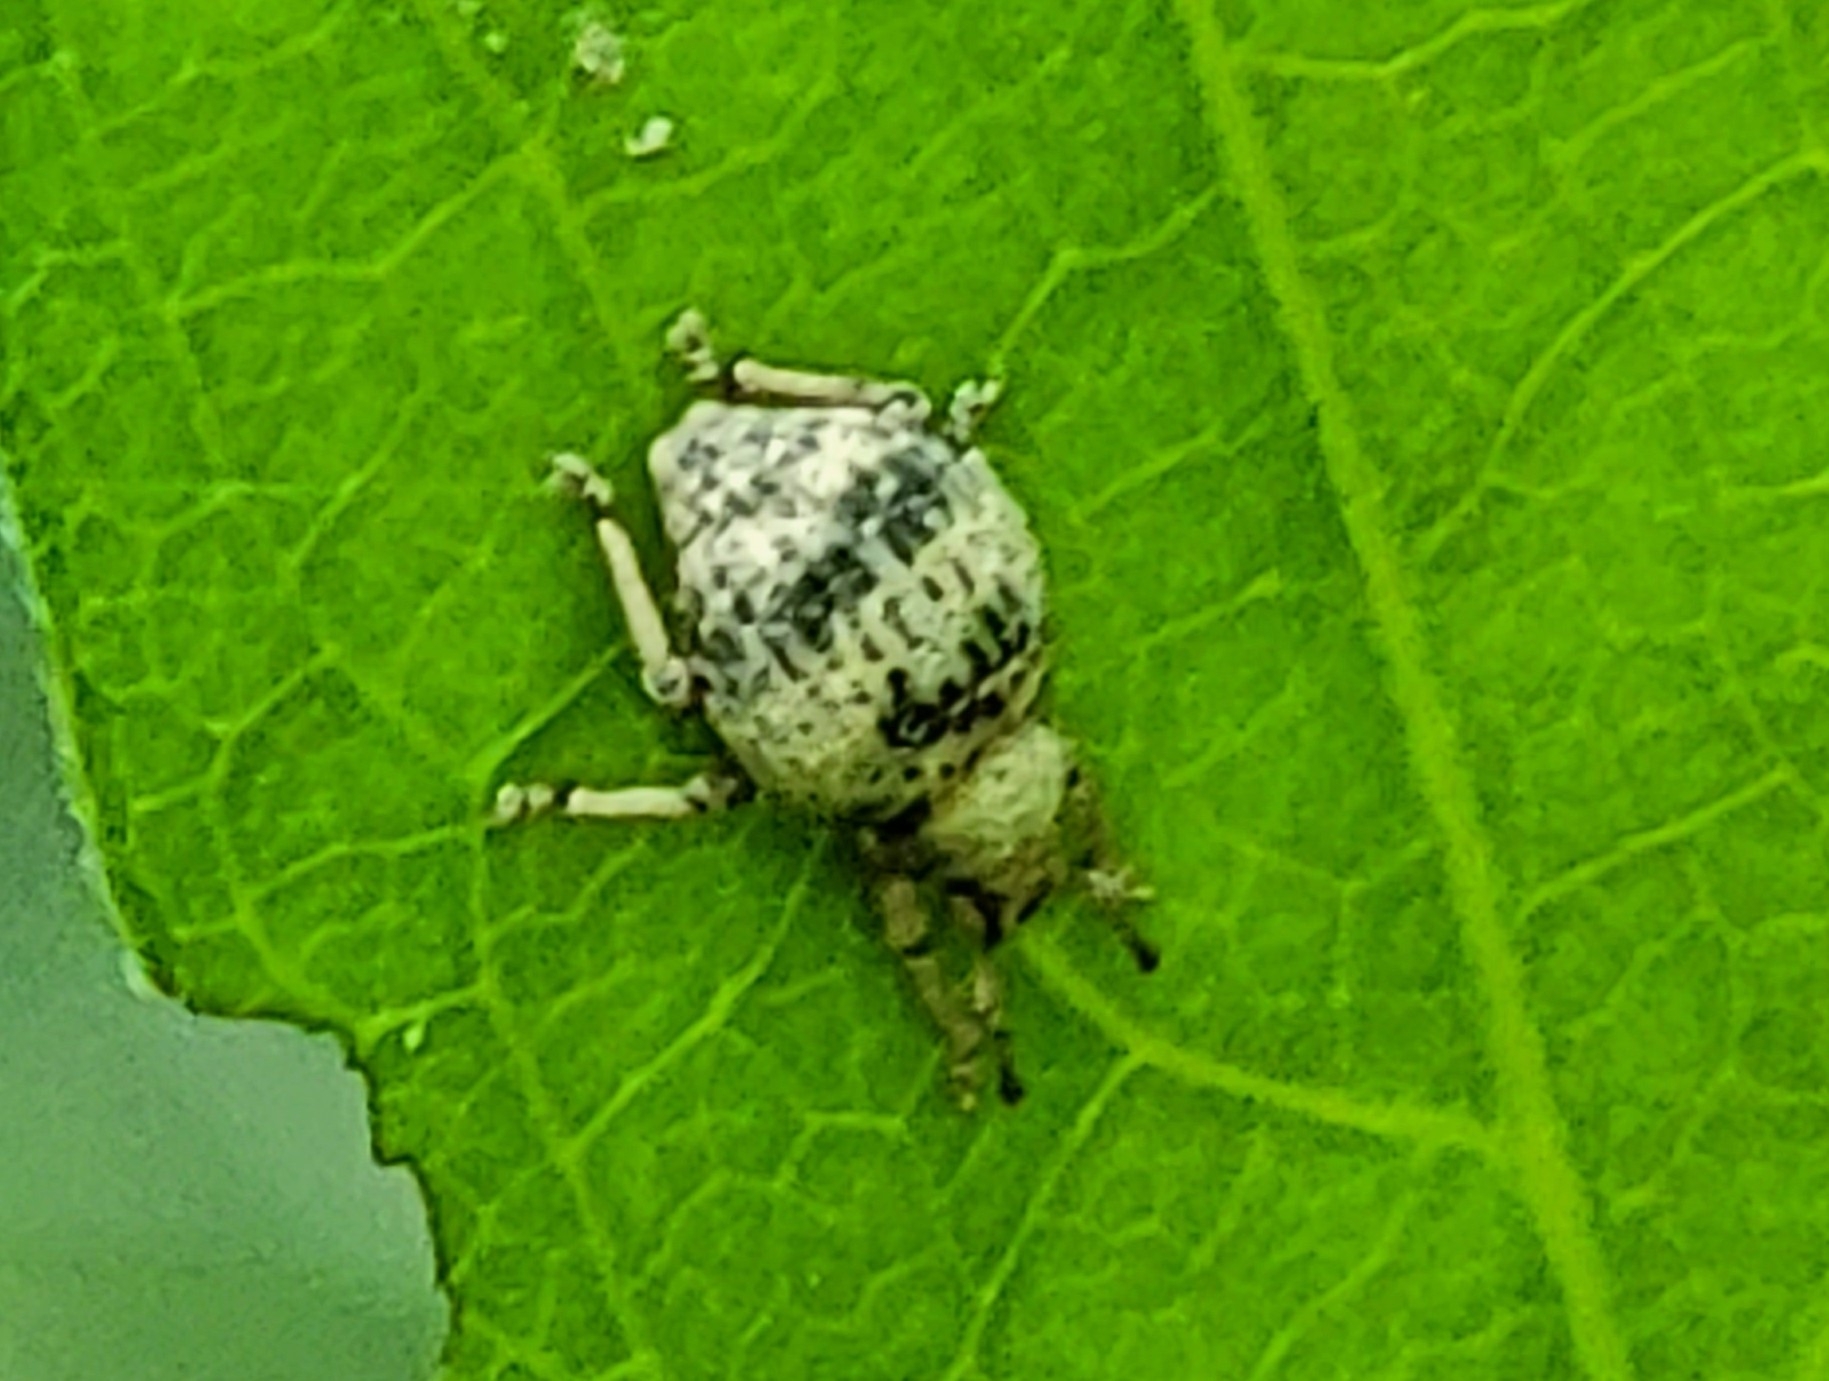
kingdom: Animalia
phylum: Arthropoda
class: Insecta
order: Coleoptera
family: Curculionidae
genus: Pseudocneorhinus
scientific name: Pseudocneorhinus bifasciatus
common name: Two-banded japanese weevil
